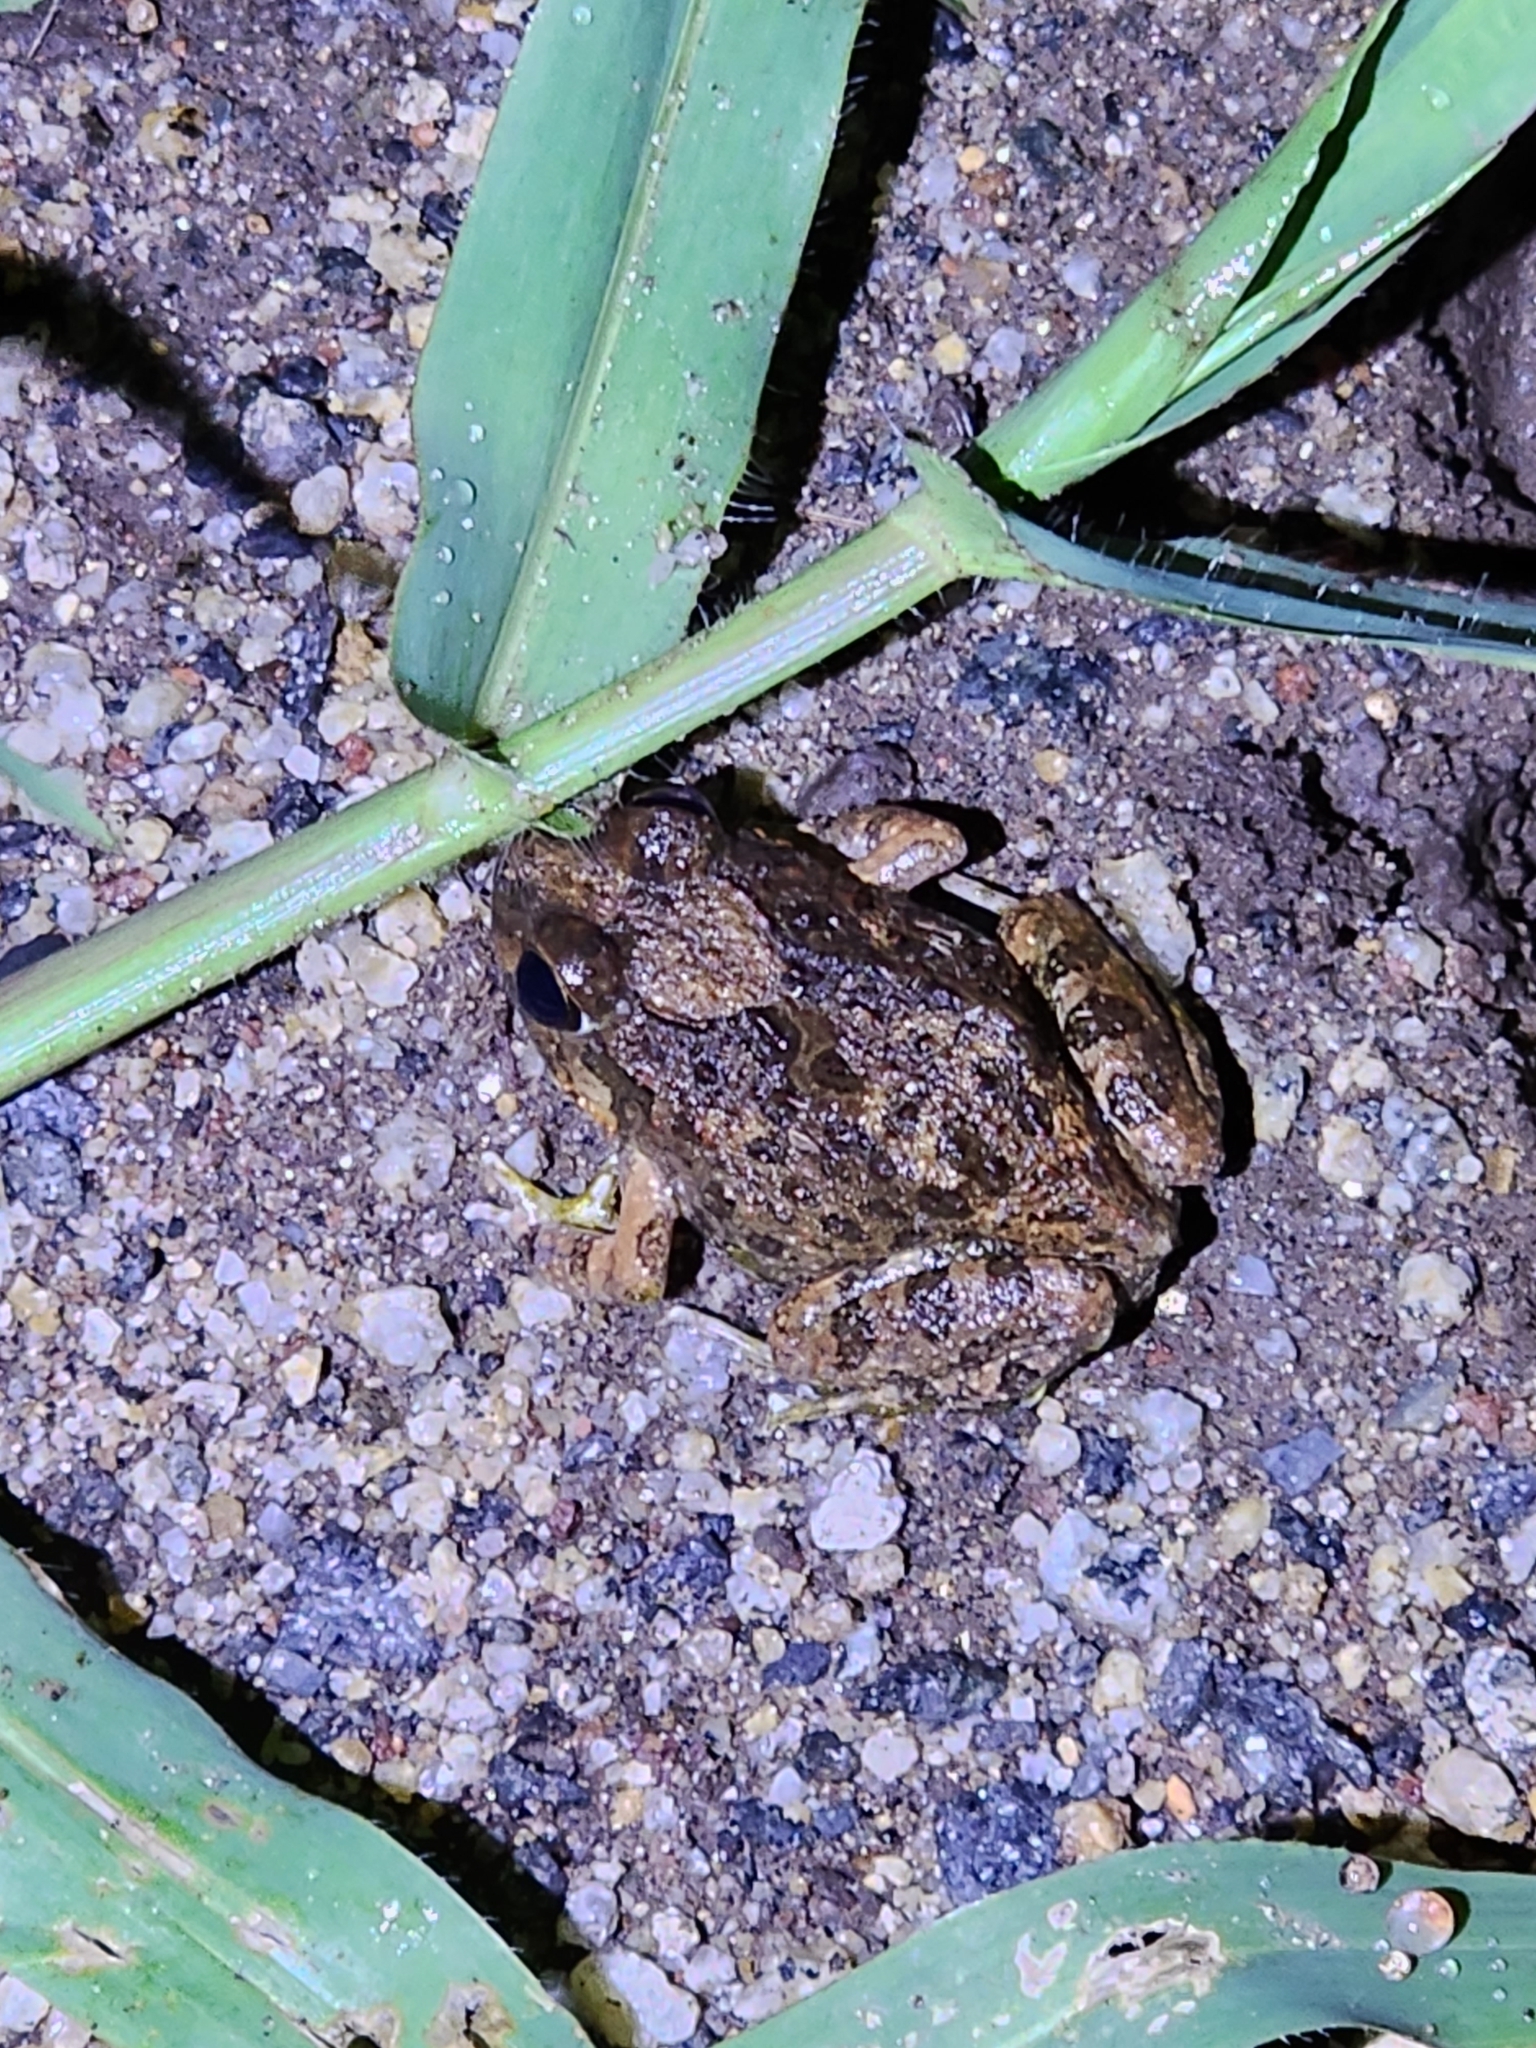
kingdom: Animalia
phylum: Chordata
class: Amphibia
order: Anura
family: Limnodynastidae
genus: Platyplectrum
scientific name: Platyplectrum ornatum
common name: Ornate burrowing frog
